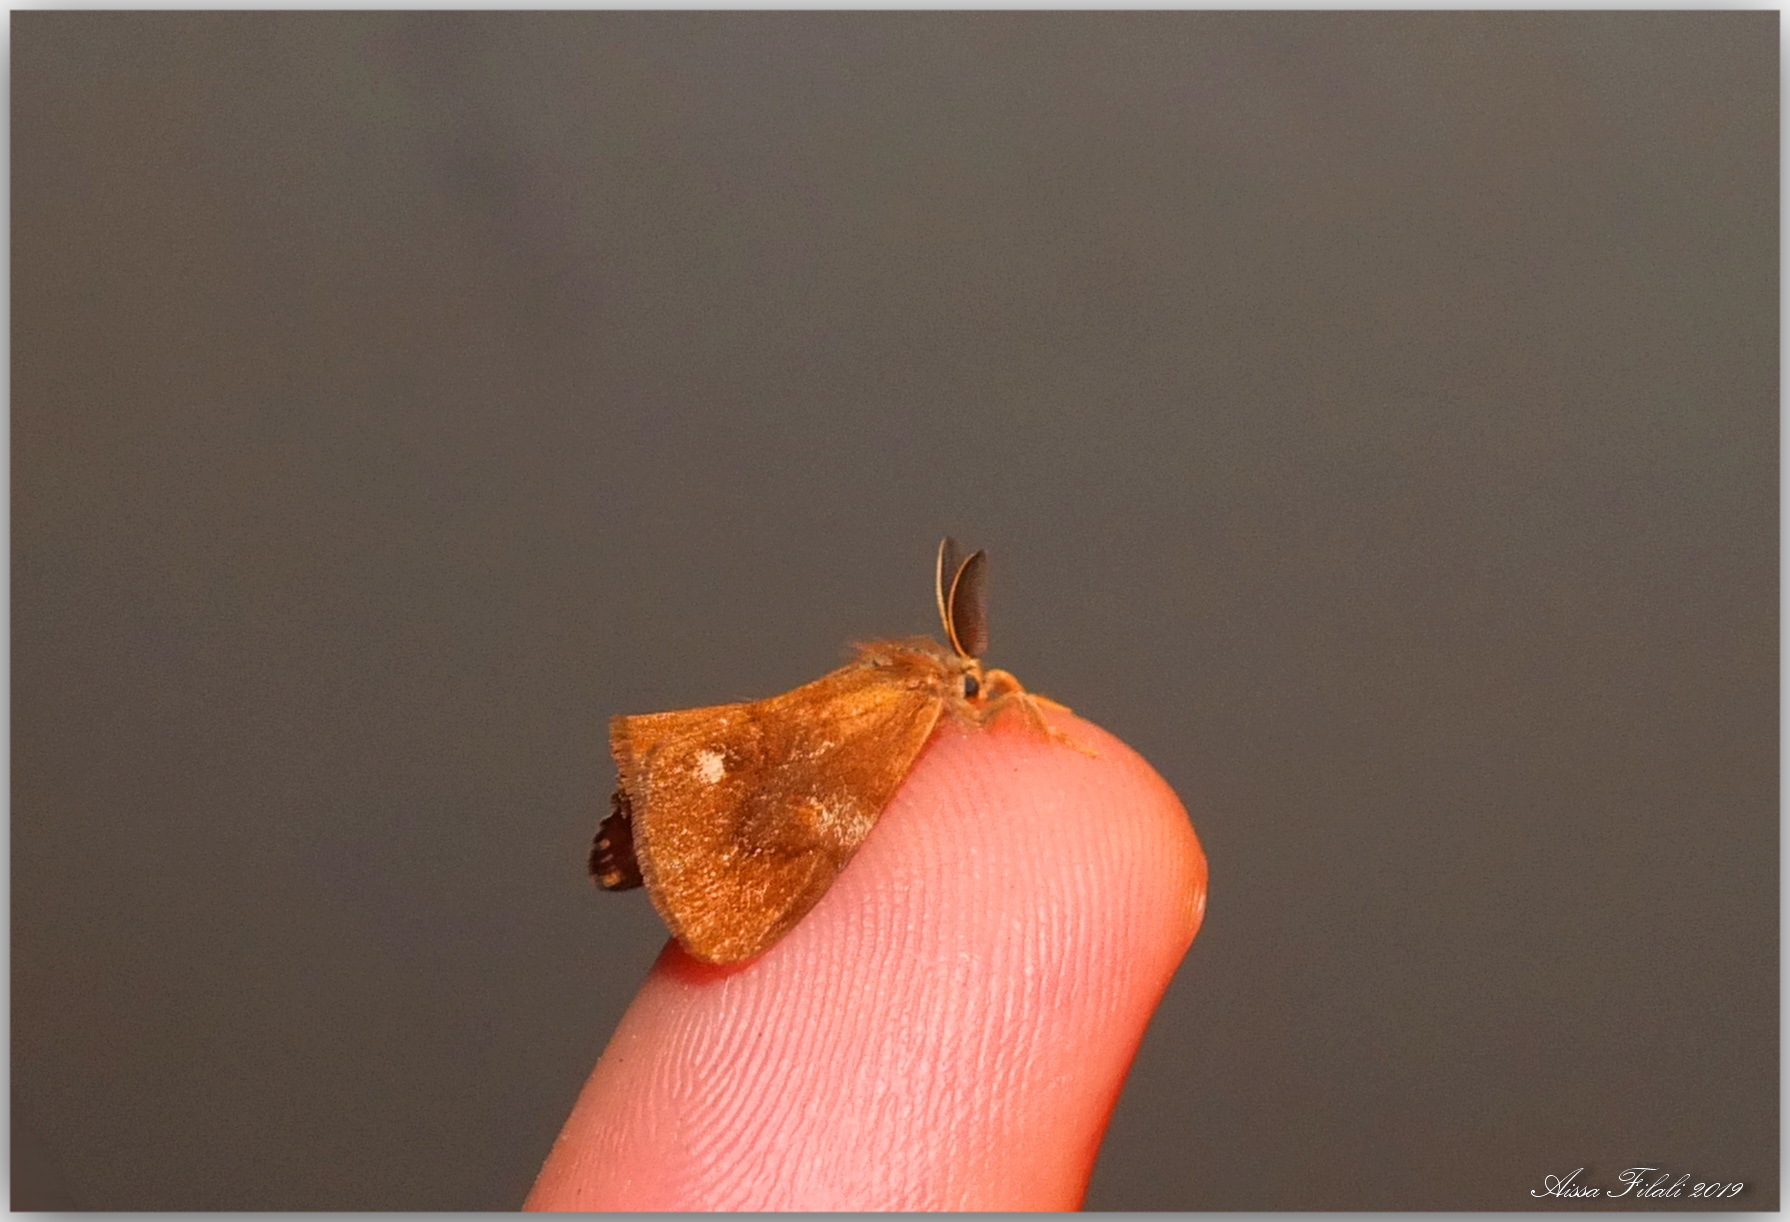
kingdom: Animalia
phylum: Arthropoda
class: Insecta
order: Lepidoptera
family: Erebidae
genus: Orgyia
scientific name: Orgyia trigotephras
